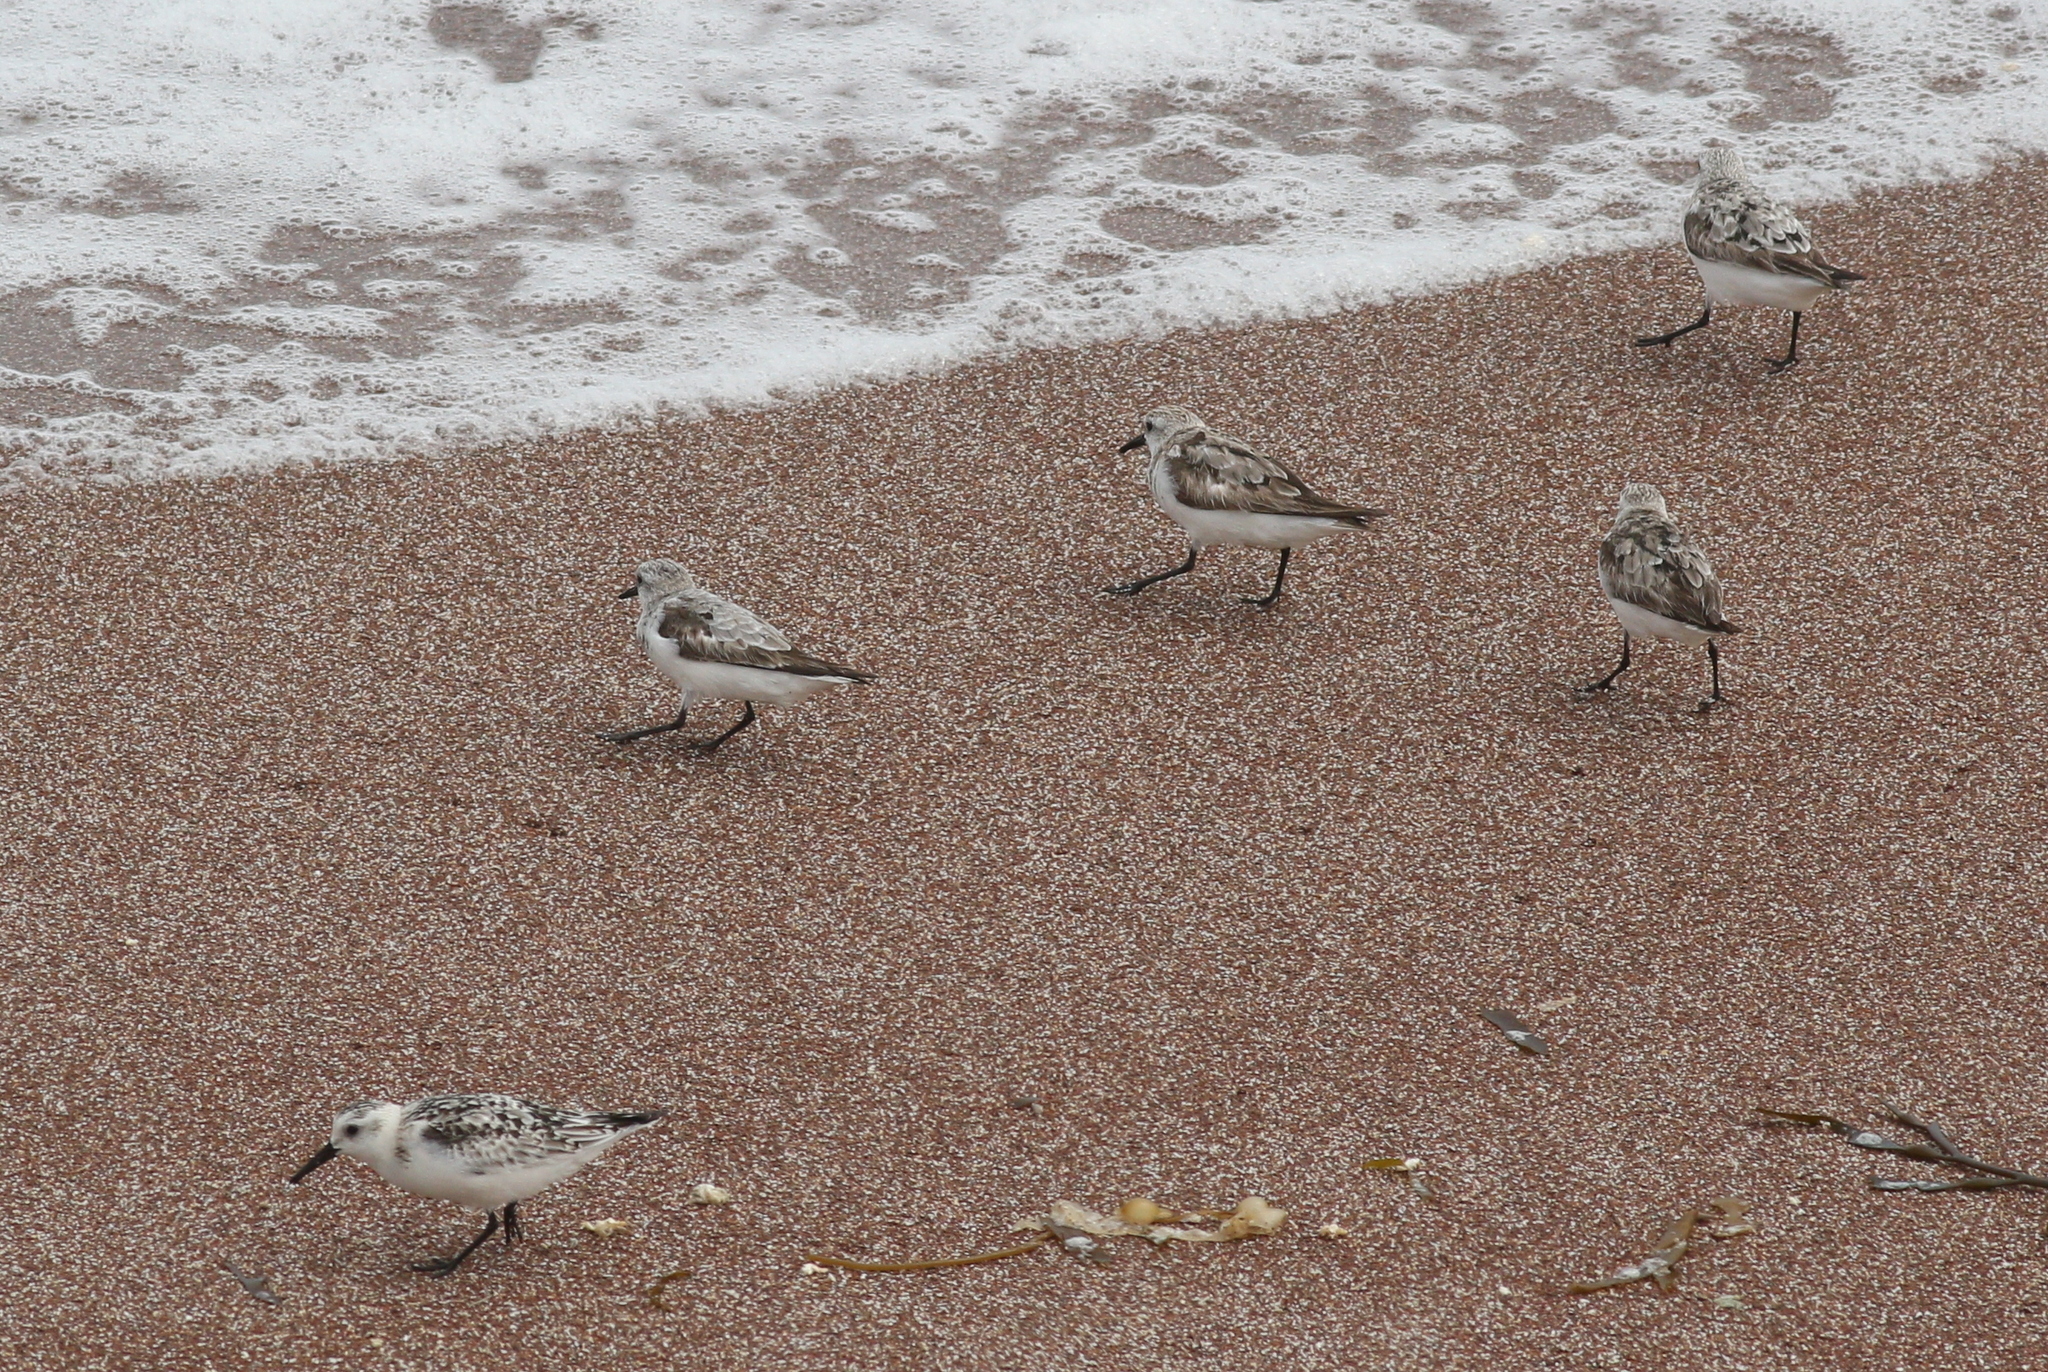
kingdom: Animalia
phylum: Chordata
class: Aves
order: Charadriiformes
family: Scolopacidae
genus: Calidris
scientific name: Calidris alba
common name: Sanderling
